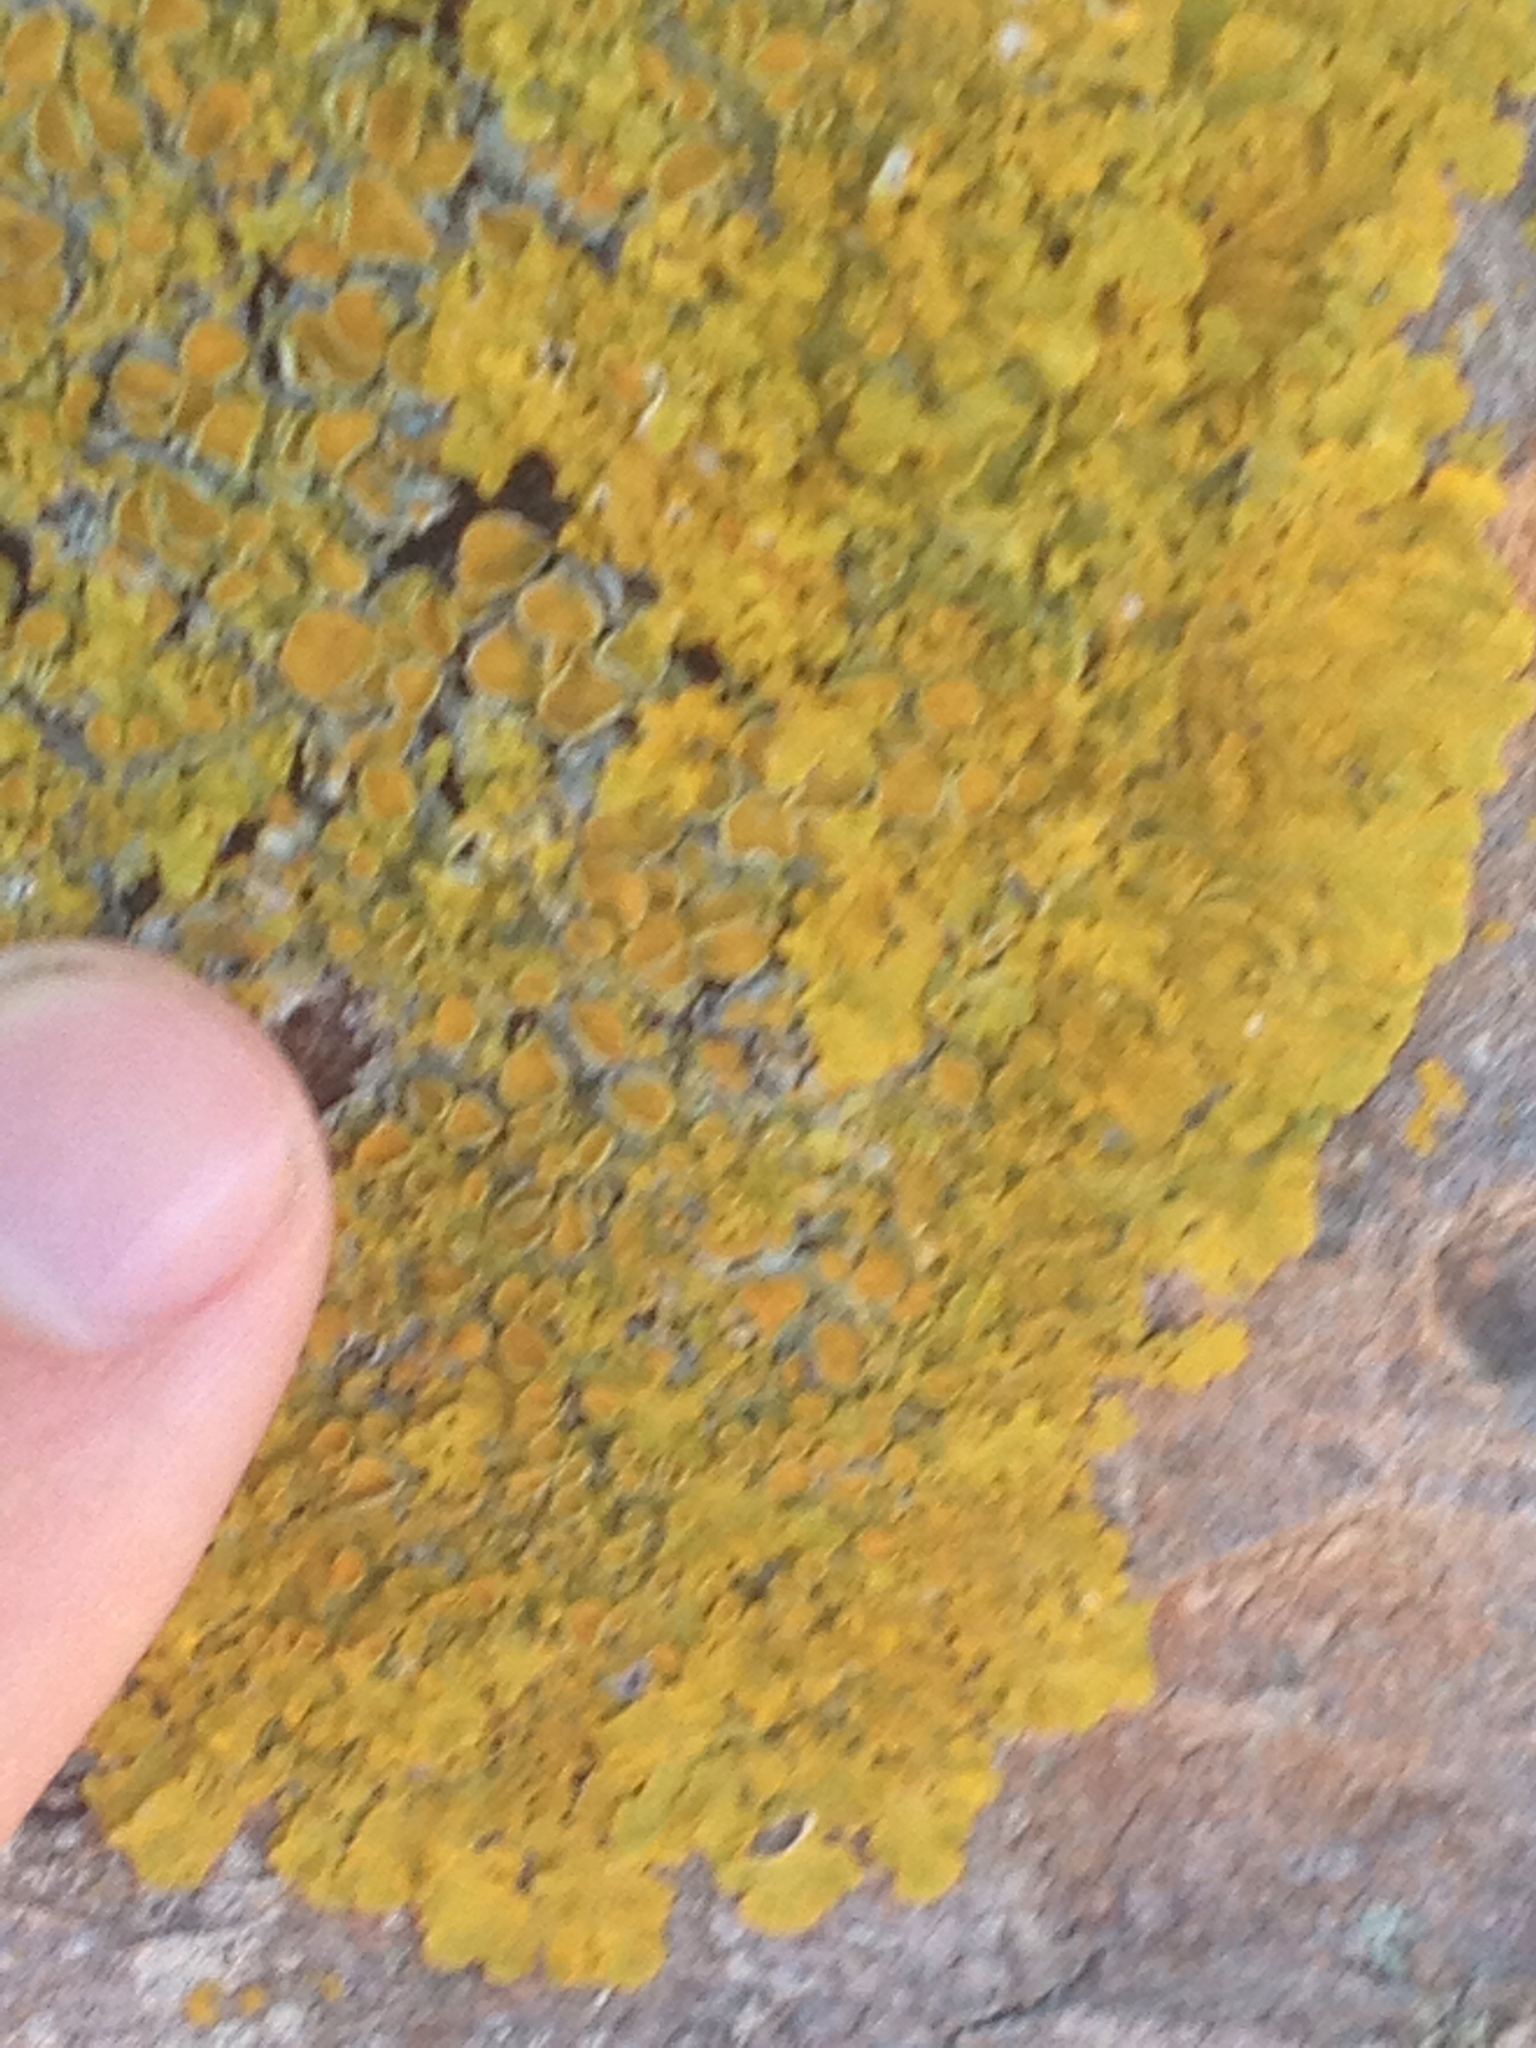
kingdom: Fungi
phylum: Ascomycota
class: Lecanoromycetes
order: Teloschistales
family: Teloschistaceae
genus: Xanthoria
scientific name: Xanthoria parietina
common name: Common orange lichen
